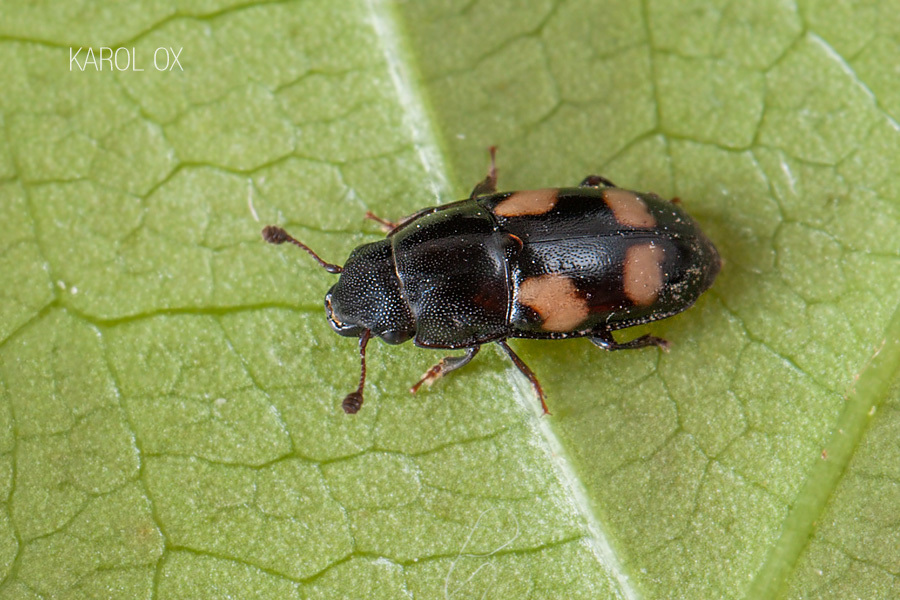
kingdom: Animalia
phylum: Arthropoda
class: Insecta
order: Coleoptera
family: Nitidulidae
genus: Glischrochilus
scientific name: Glischrochilus quadrisignatus
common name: Picnic beetle
